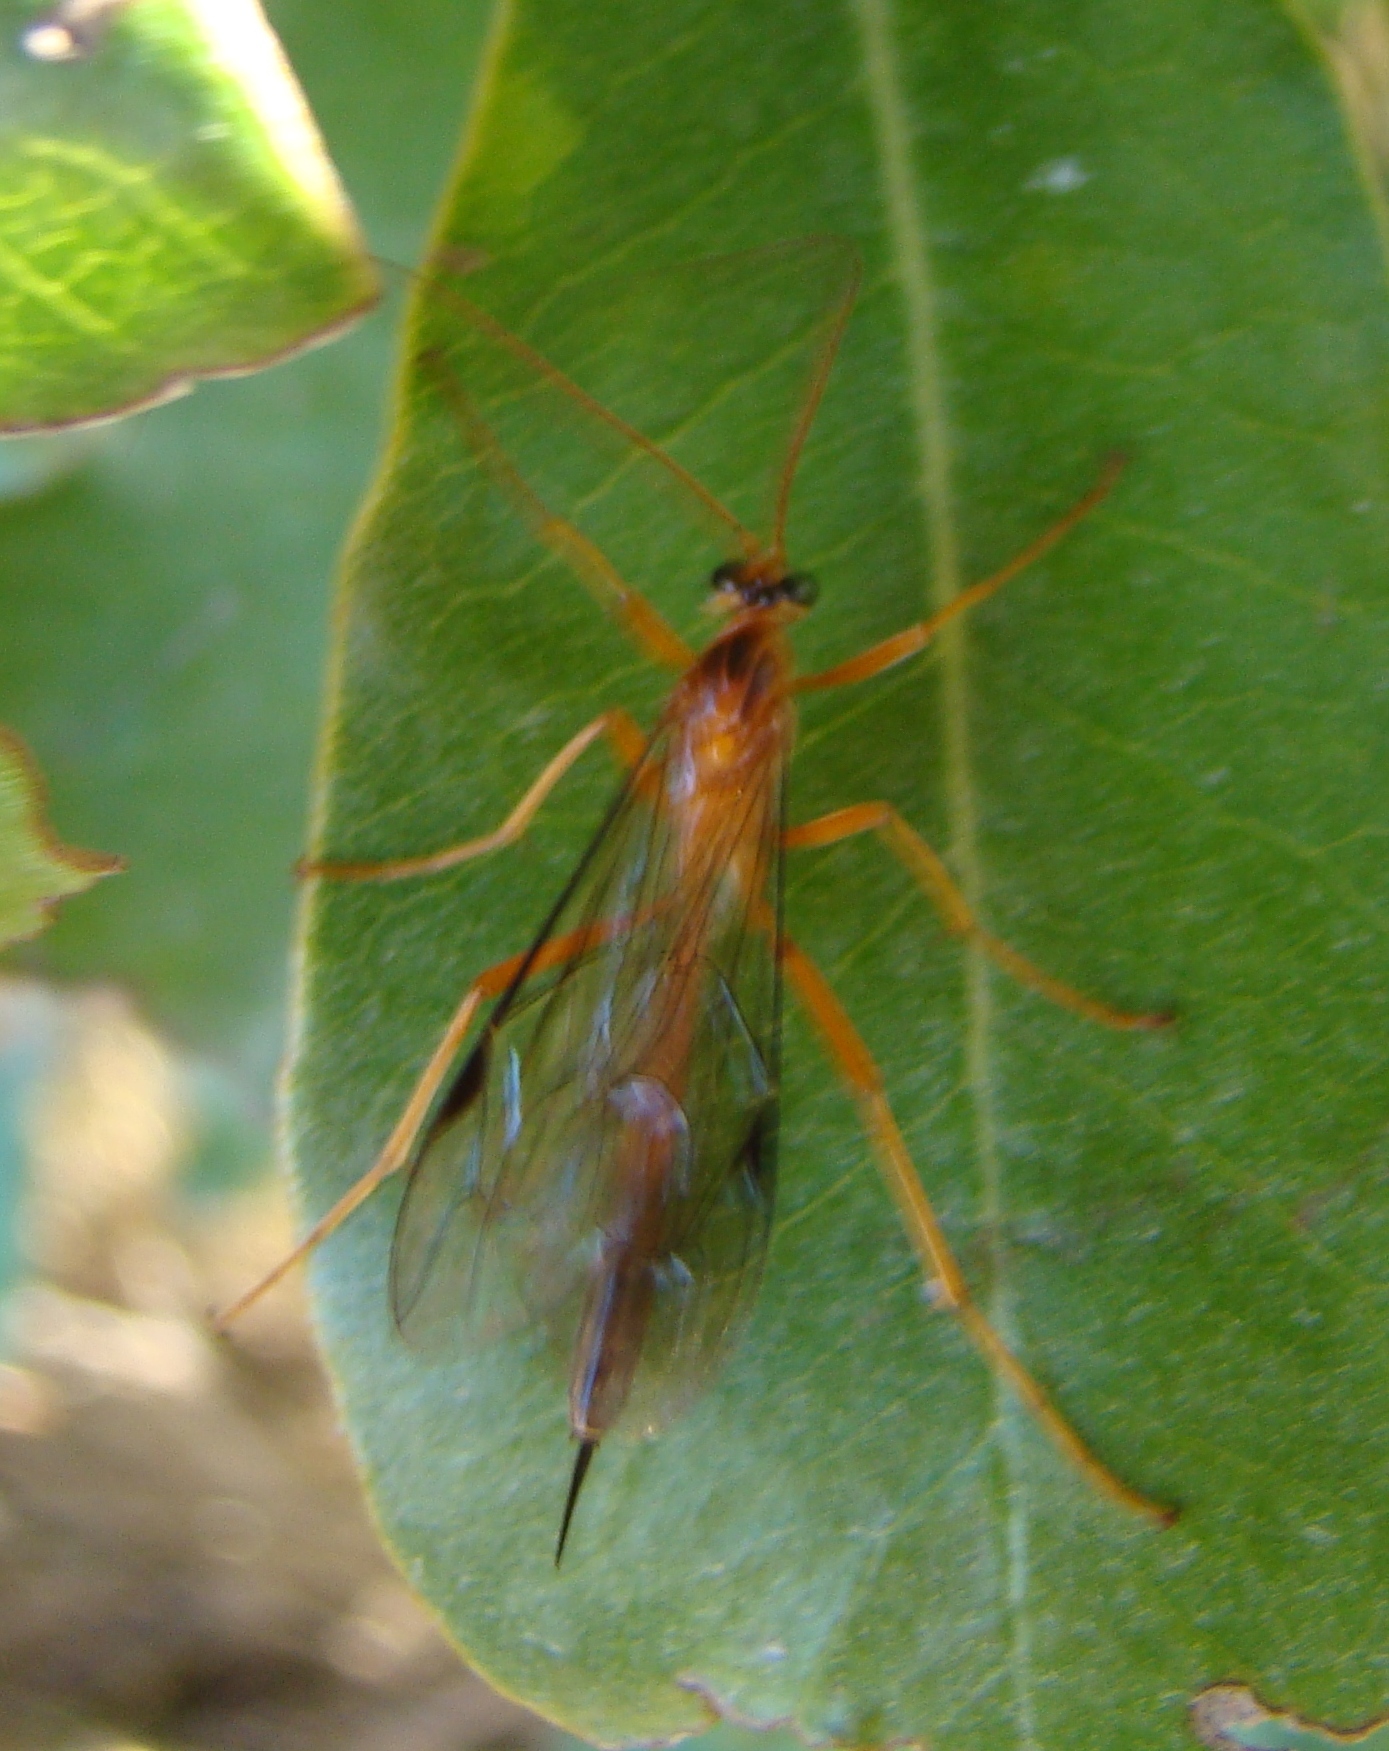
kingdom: Animalia
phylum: Arthropoda
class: Insecta
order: Hymenoptera
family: Ichneumonidae
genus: Netelia
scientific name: Netelia ephippiata
